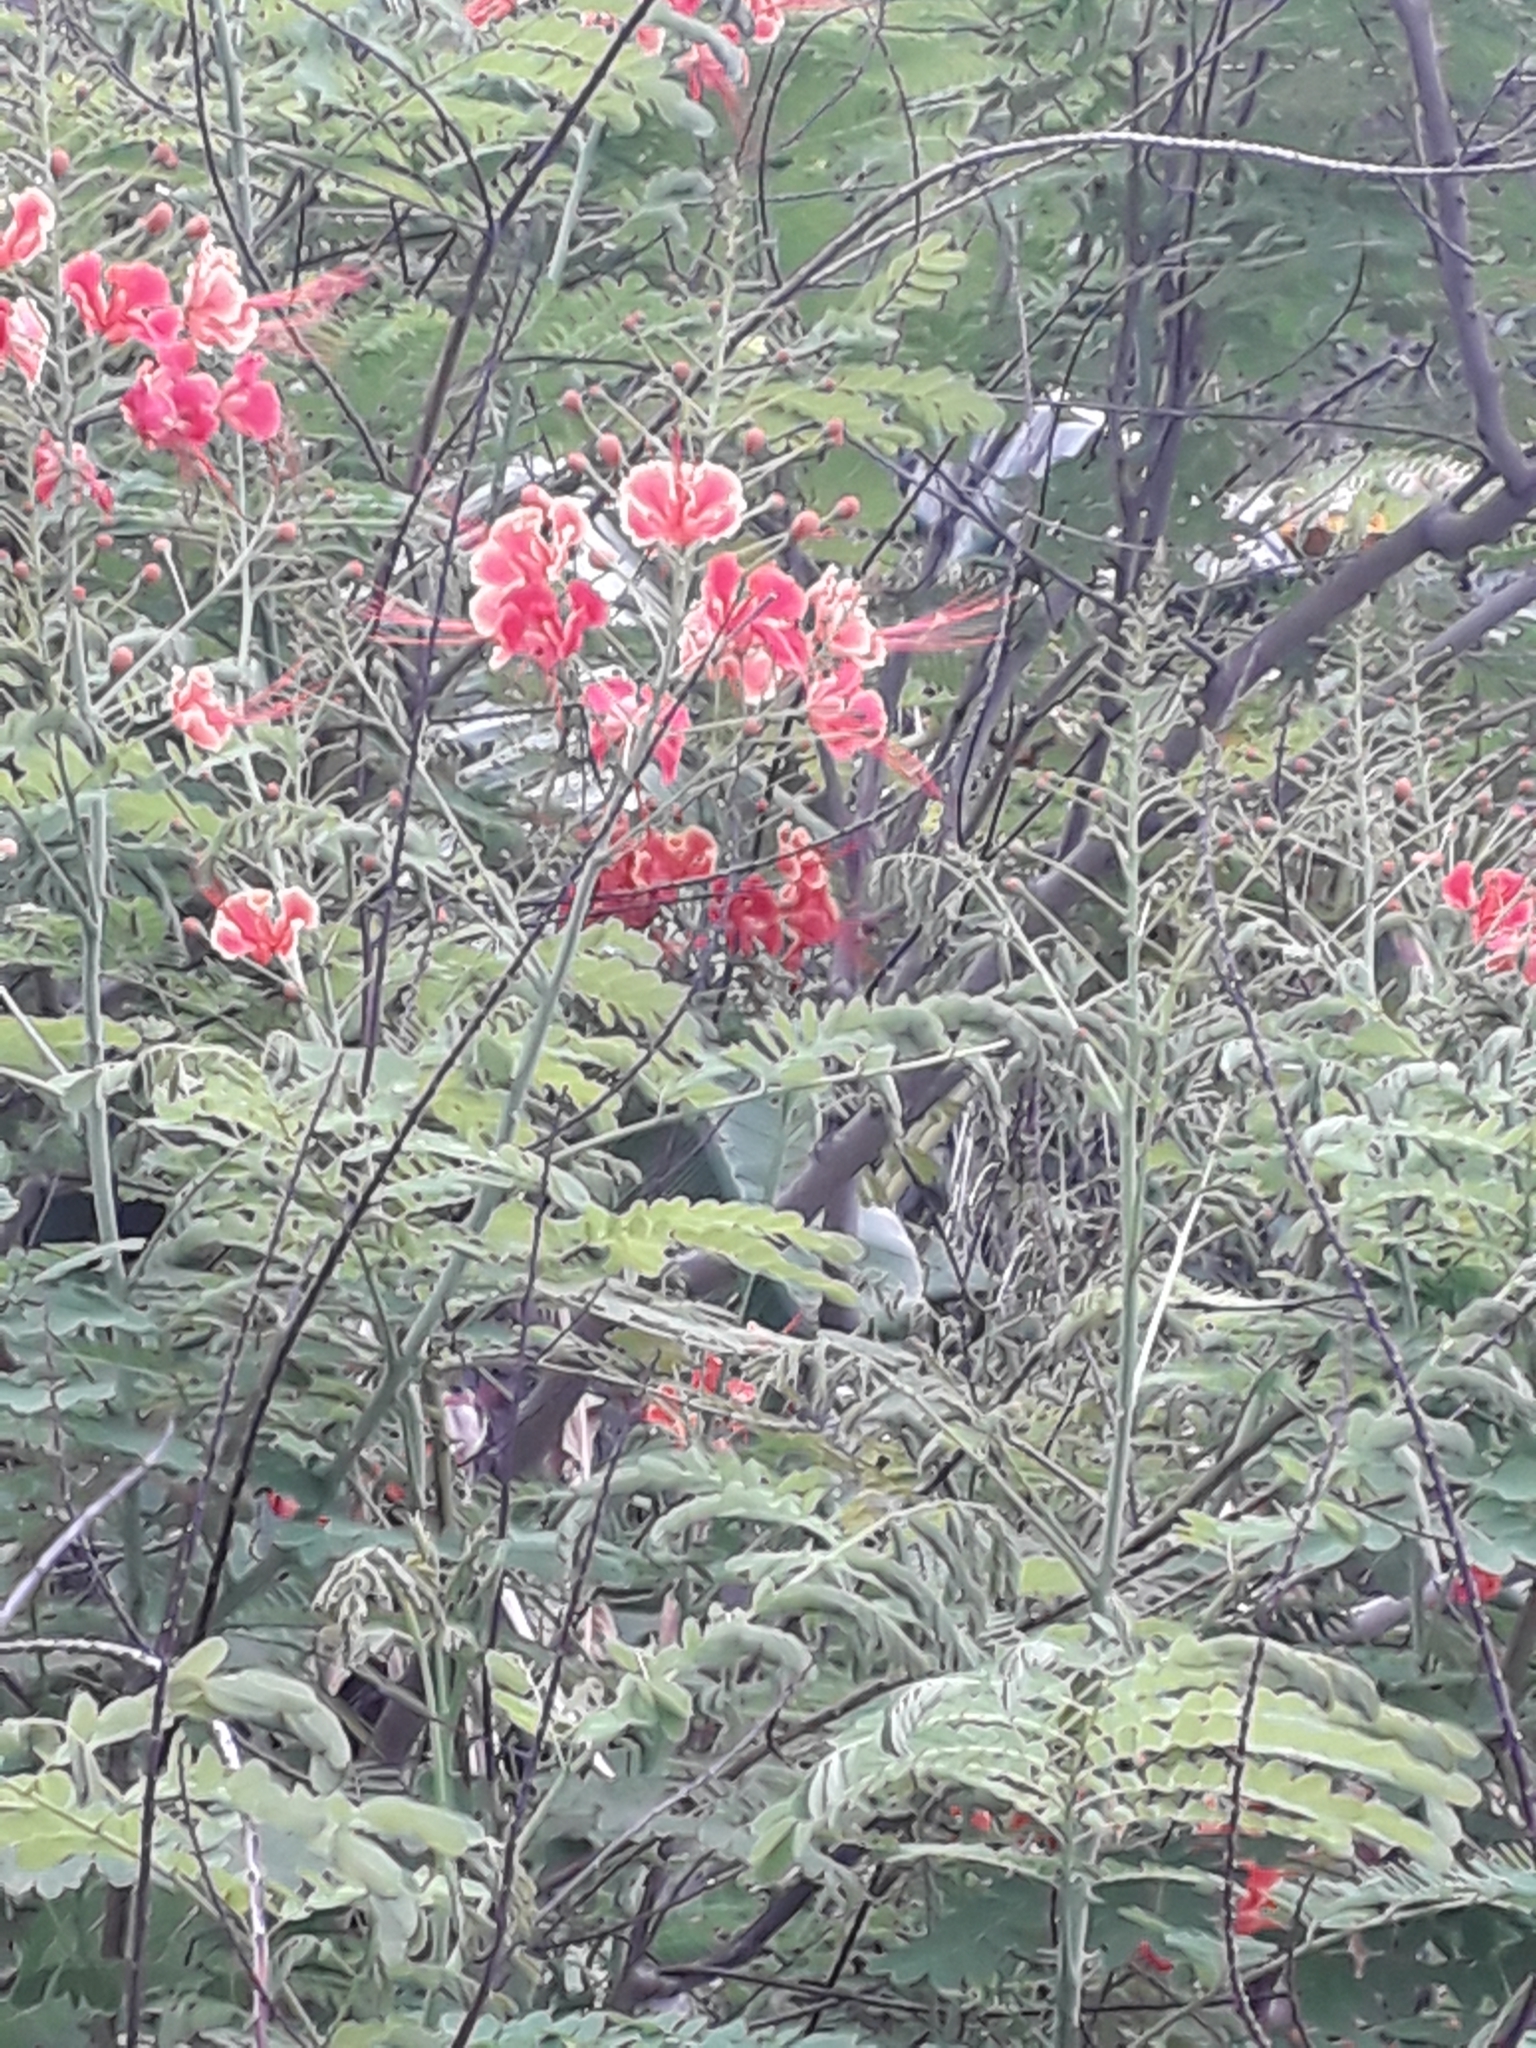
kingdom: Plantae
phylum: Tracheophyta
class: Magnoliopsida
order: Fabales
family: Fabaceae
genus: Caesalpinia
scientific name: Caesalpinia pulcherrima
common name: Pride-of-barbados
